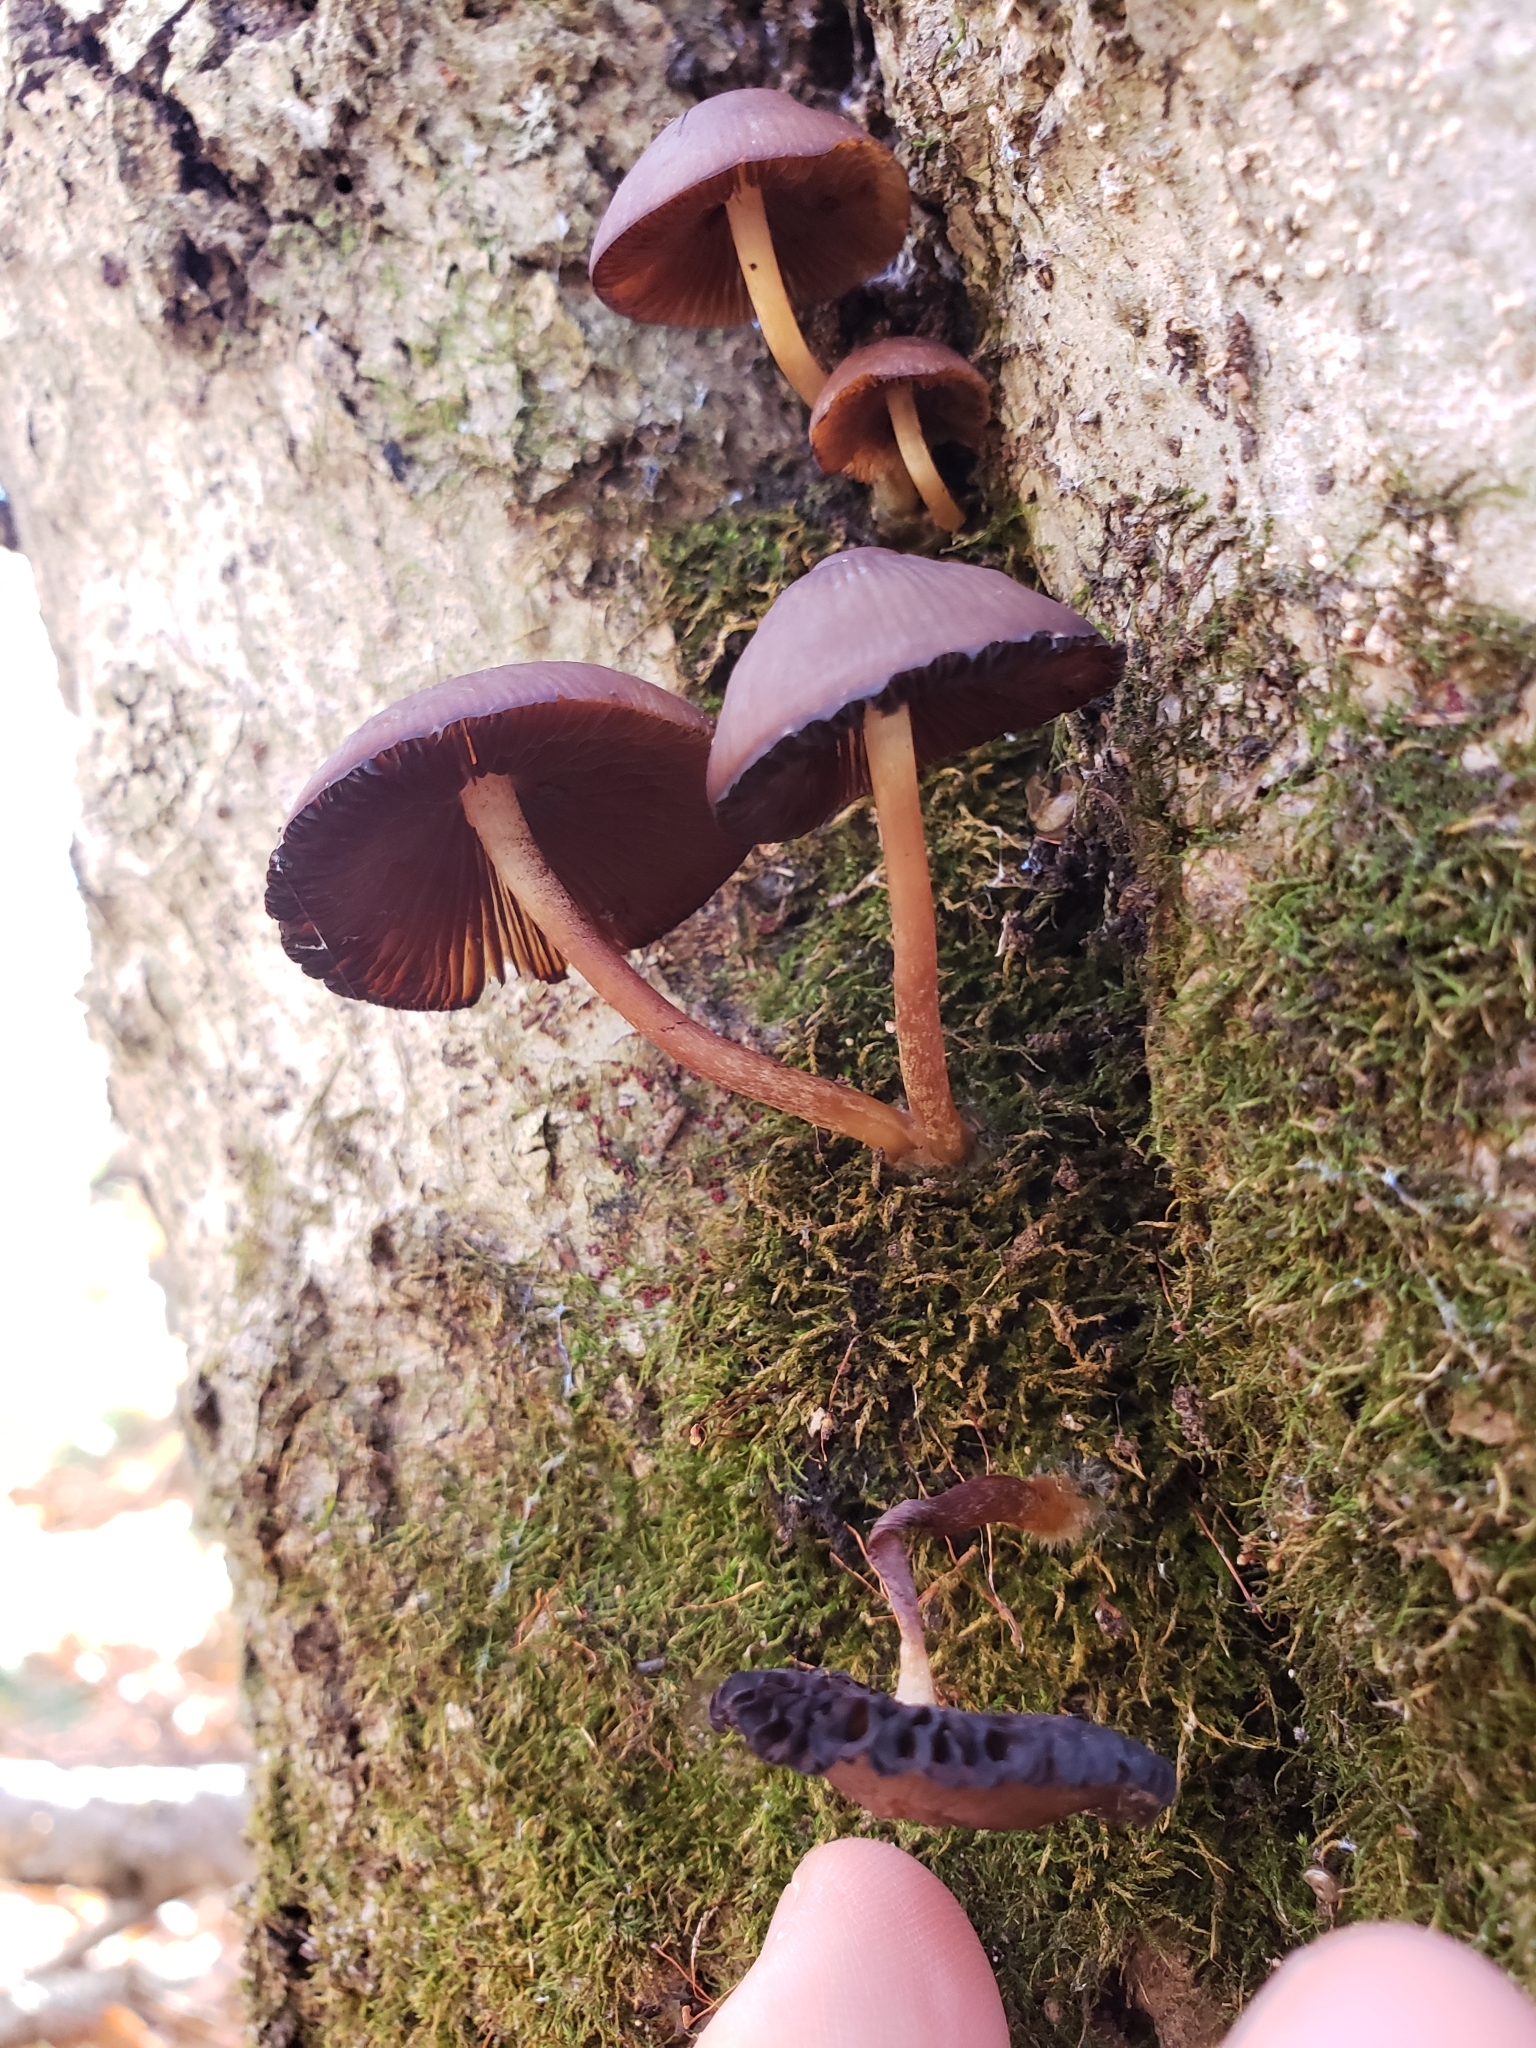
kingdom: Fungi
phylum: Basidiomycota
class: Agaricomycetes
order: Agaricales
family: Mycenaceae
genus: Mycena
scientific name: Mycena
